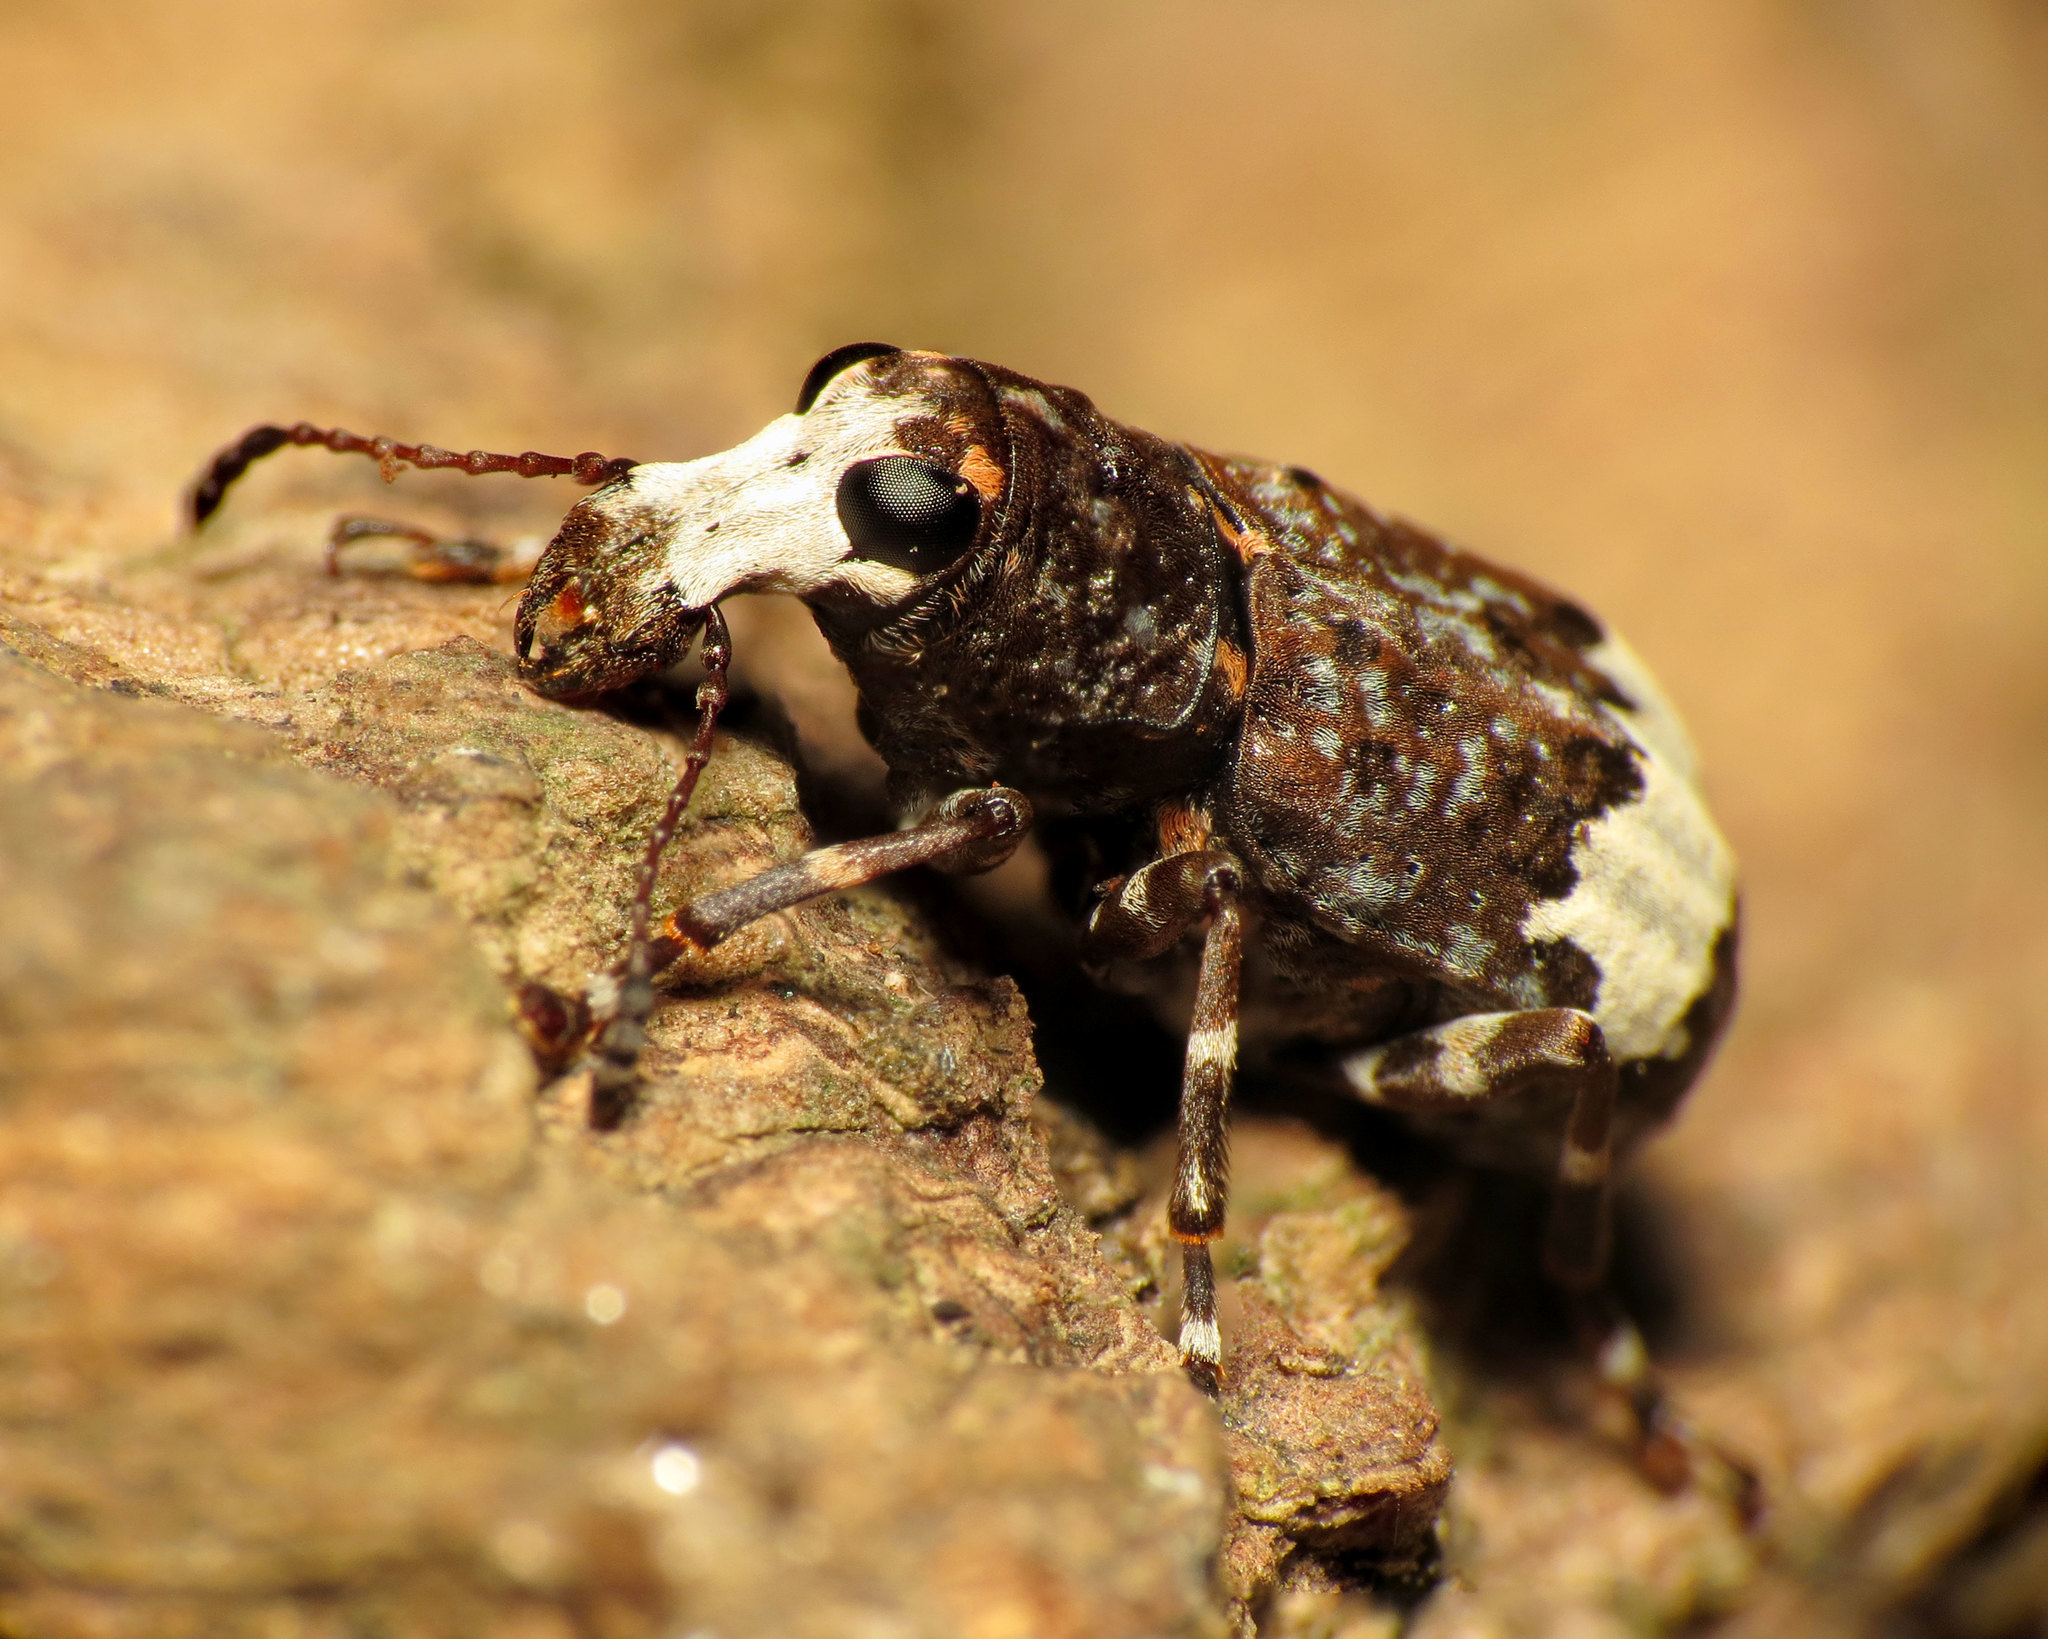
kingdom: Animalia
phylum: Arthropoda
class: Insecta
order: Coleoptera
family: Anthribidae
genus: Eurymycter
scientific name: Eurymycter fasciatus
